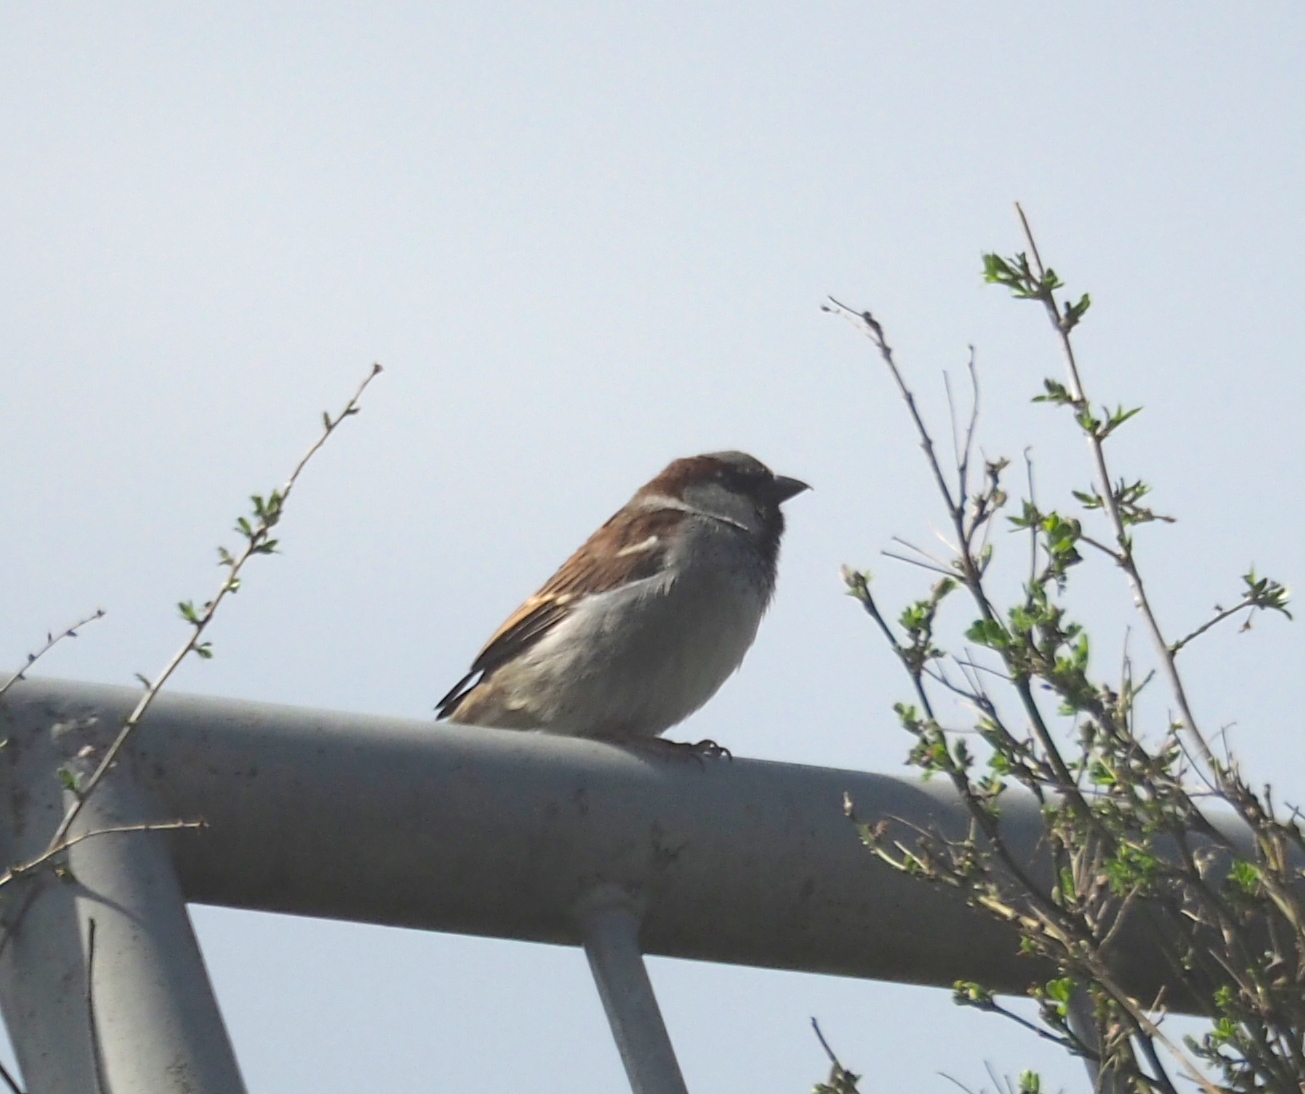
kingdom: Animalia
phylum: Chordata
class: Aves
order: Passeriformes
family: Passeridae
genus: Passer
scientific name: Passer domesticus
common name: House sparrow
